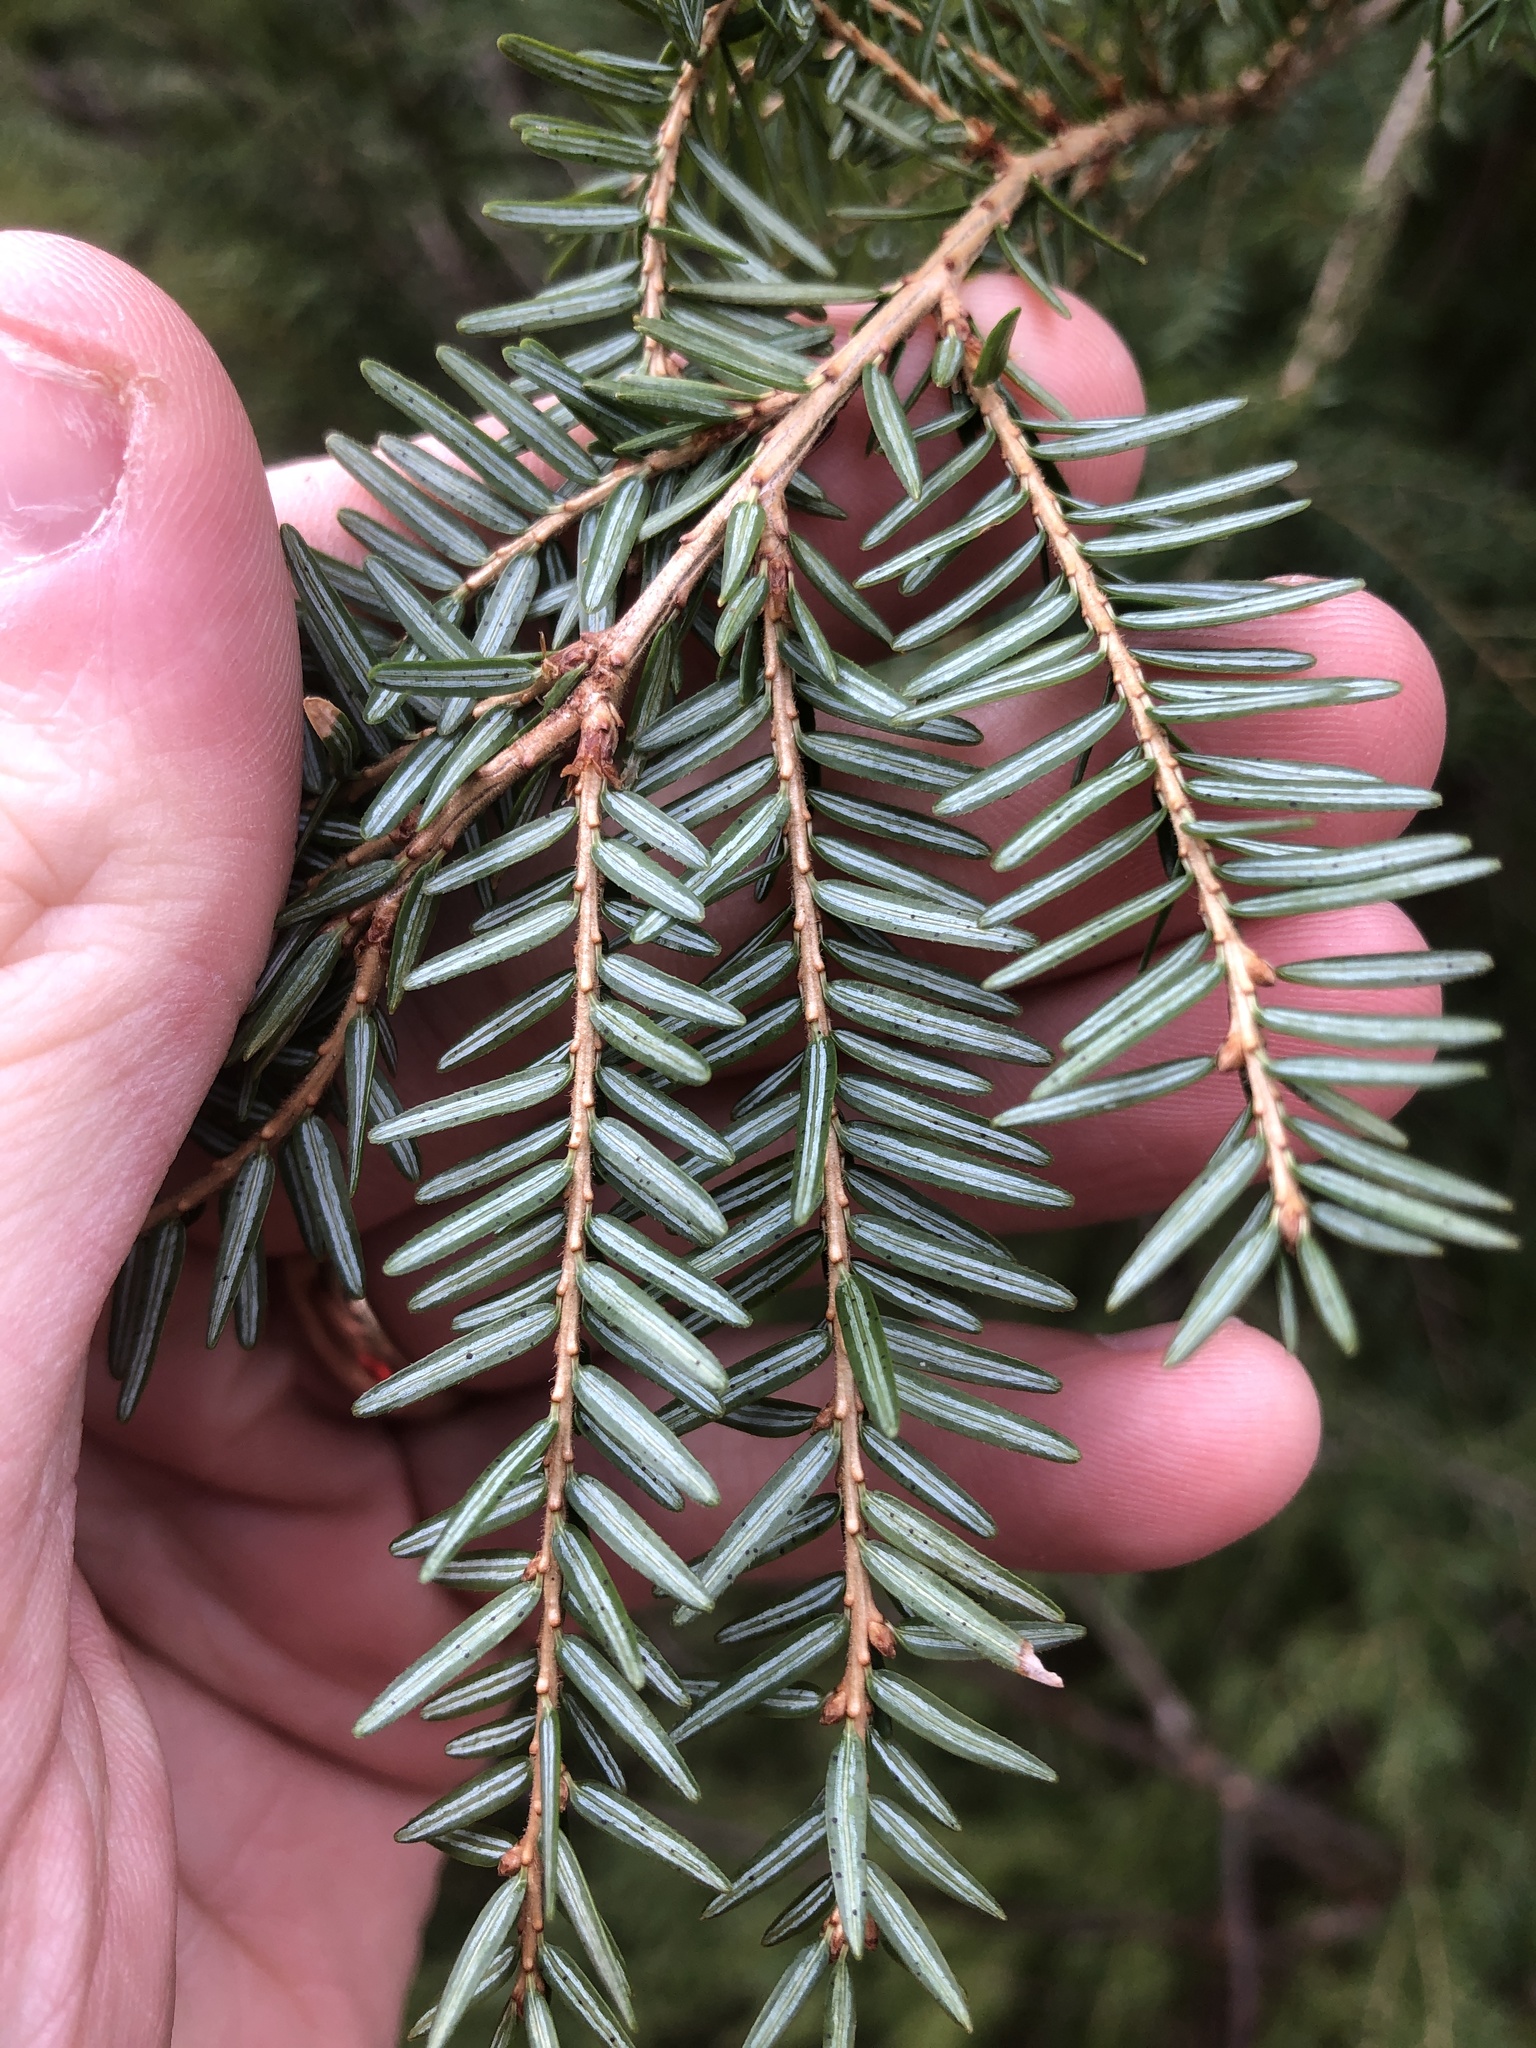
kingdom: Plantae
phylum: Tracheophyta
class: Pinopsida
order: Pinales
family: Pinaceae
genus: Tsuga
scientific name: Tsuga canadensis
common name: Eastern hemlock
